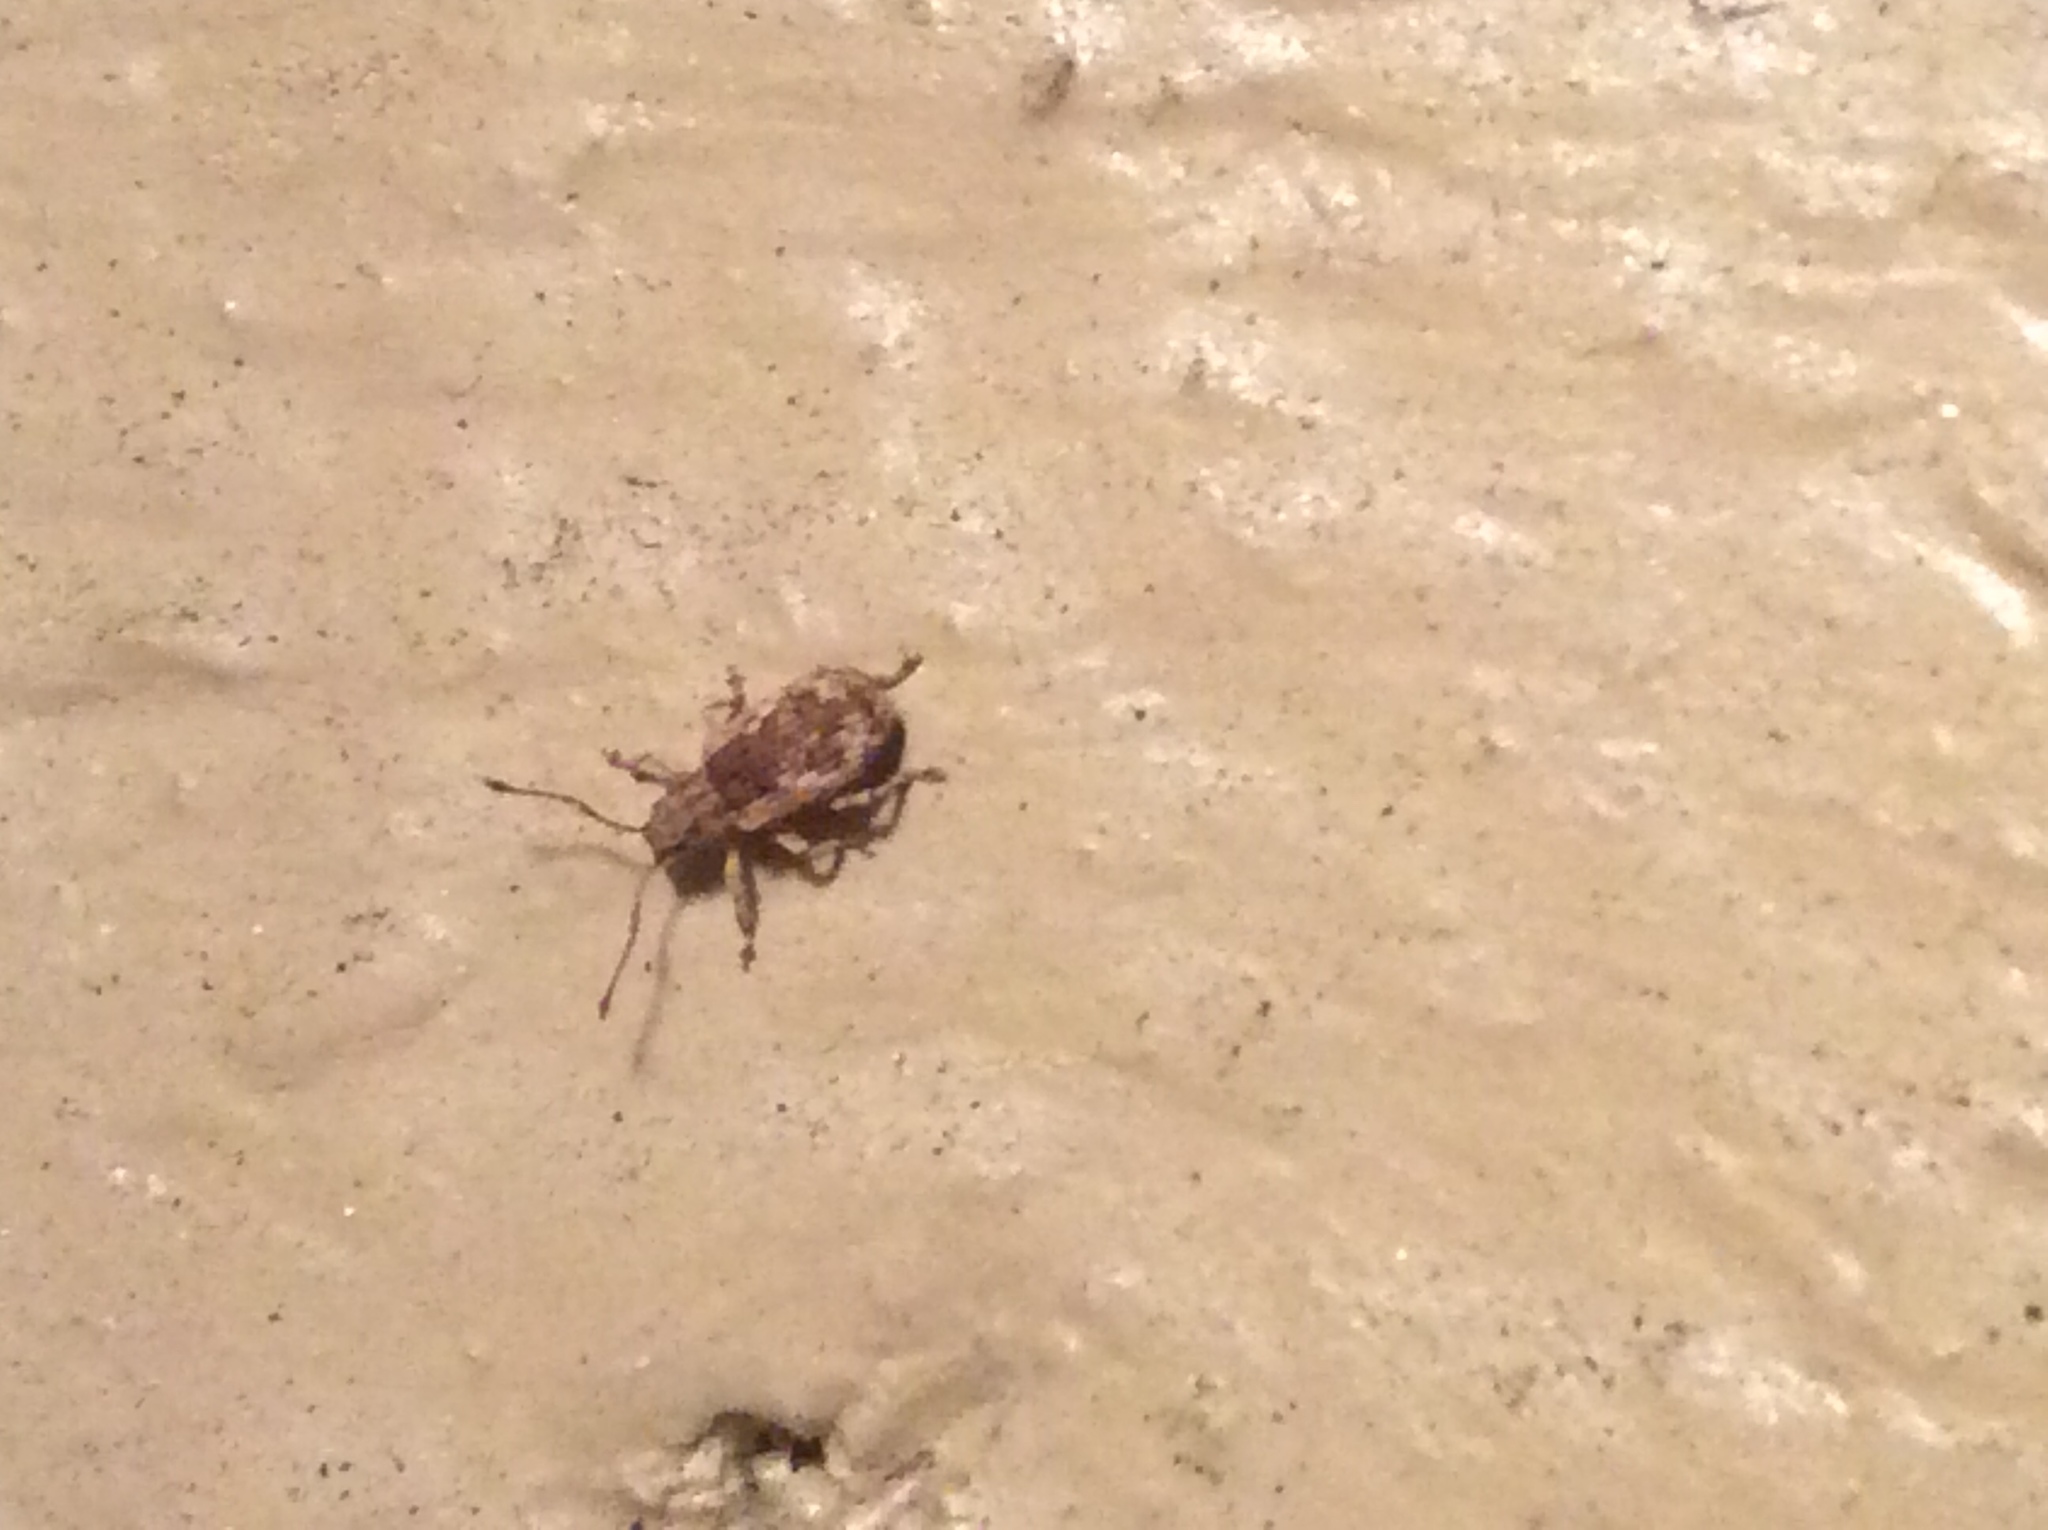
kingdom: Animalia
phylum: Arthropoda
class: Insecta
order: Coleoptera
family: Curculionidae
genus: Pseudoedophrys
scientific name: Pseudoedophrys hilleri
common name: Weevil
